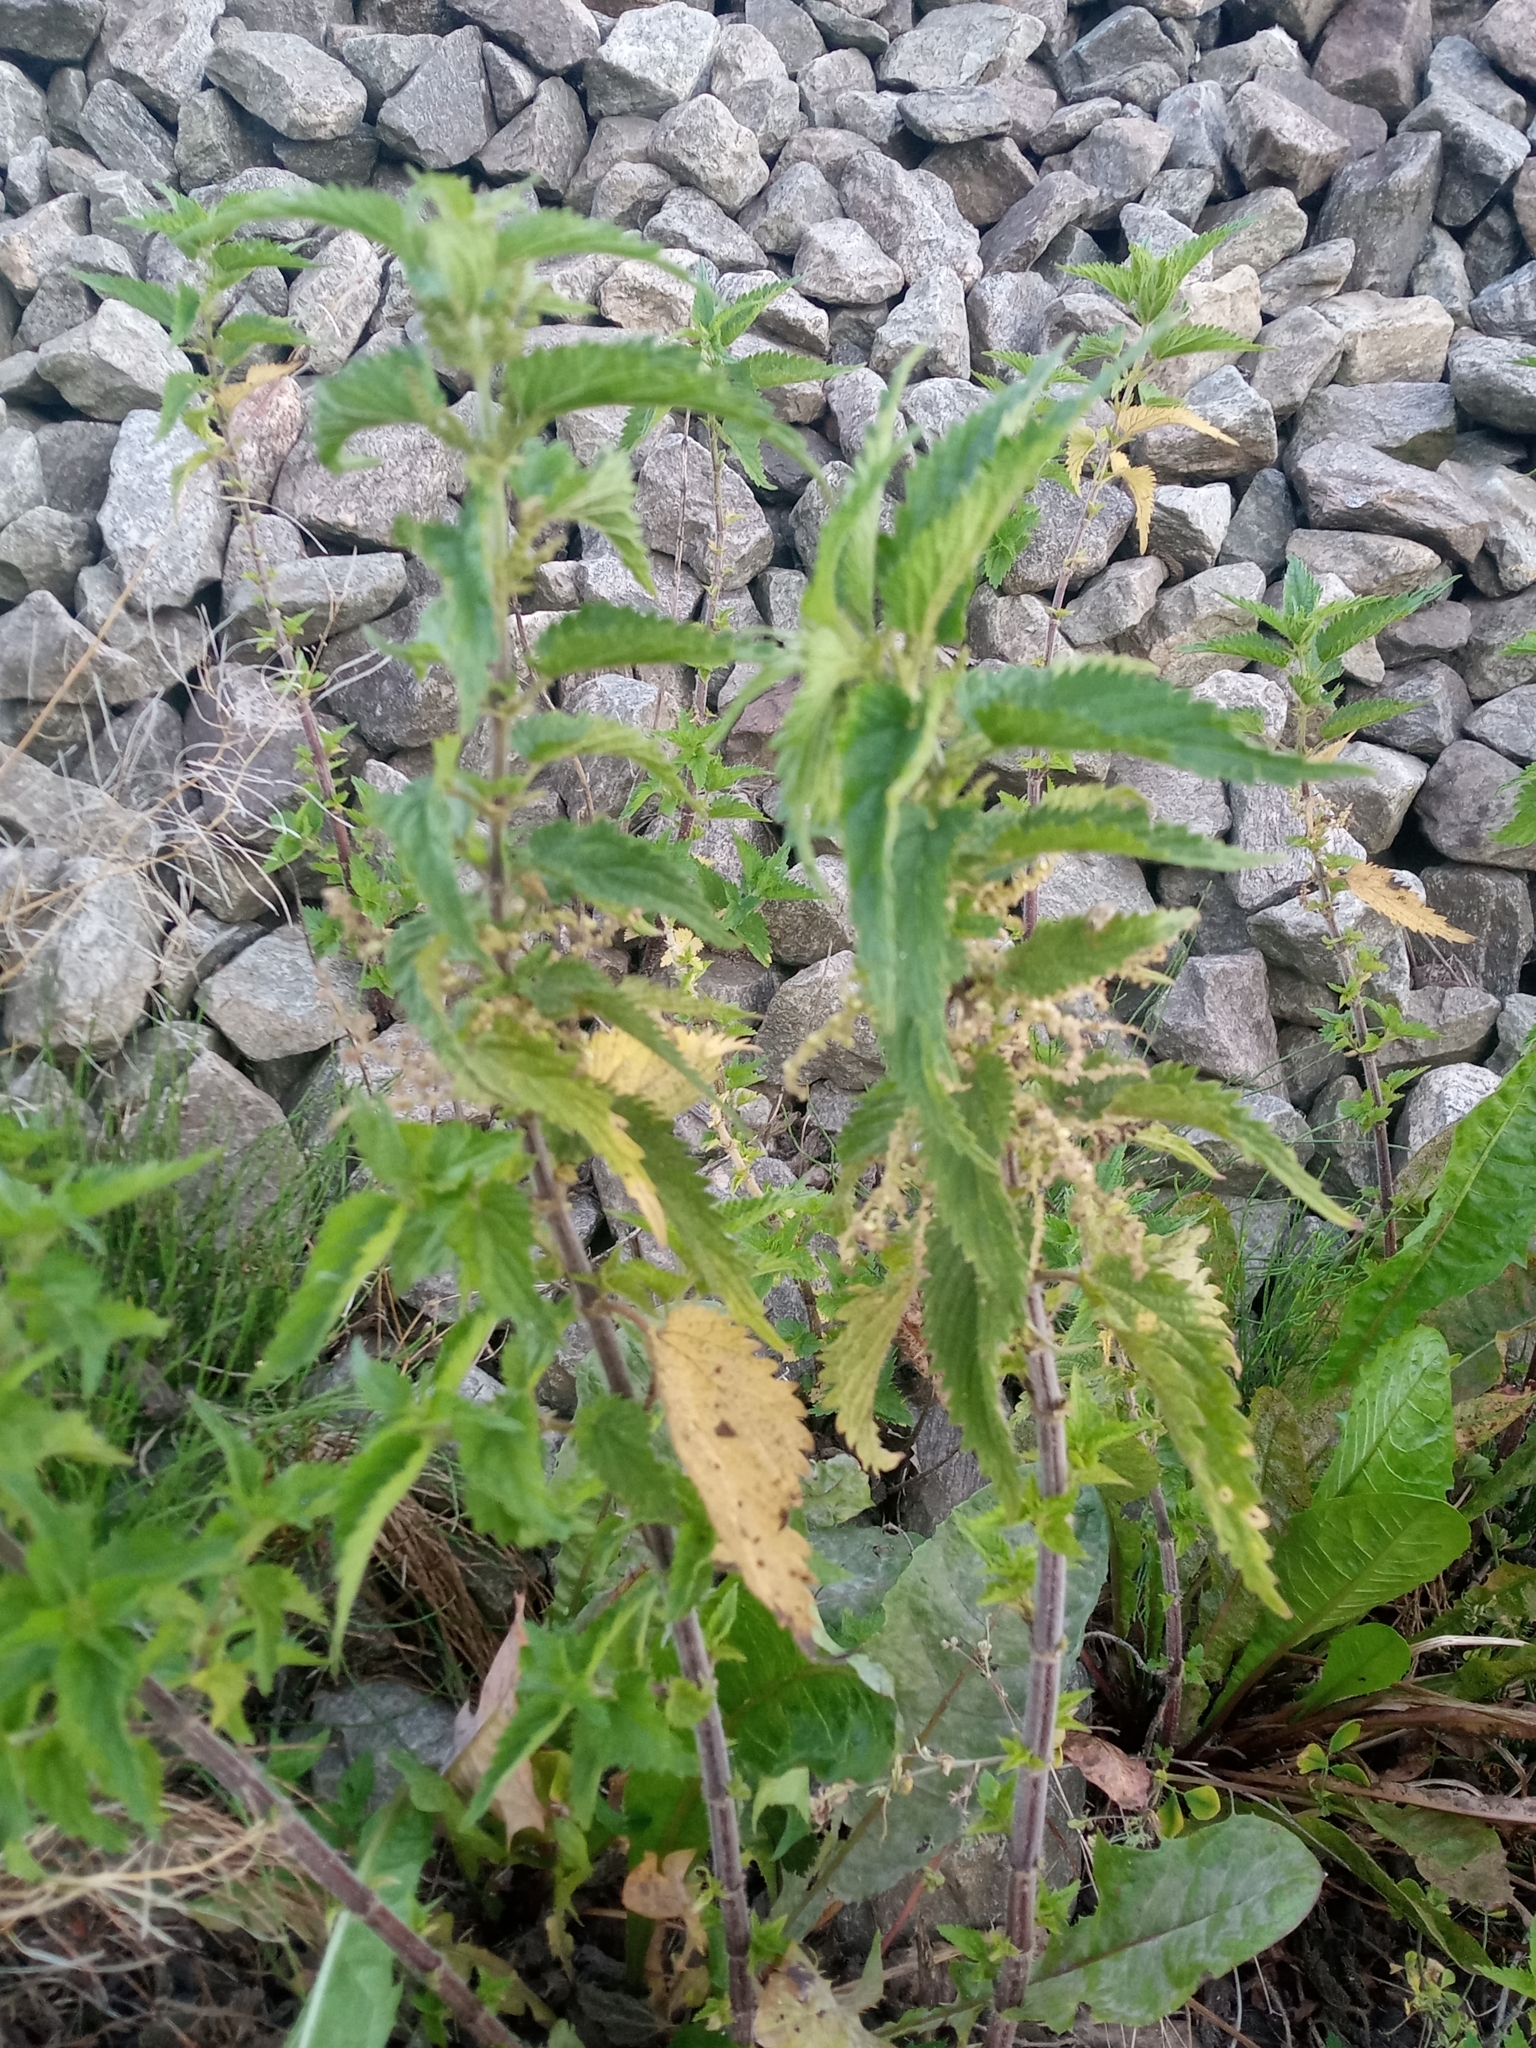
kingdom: Plantae
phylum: Tracheophyta
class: Magnoliopsida
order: Rosales
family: Urticaceae
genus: Urtica
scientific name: Urtica dioica
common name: Common nettle
